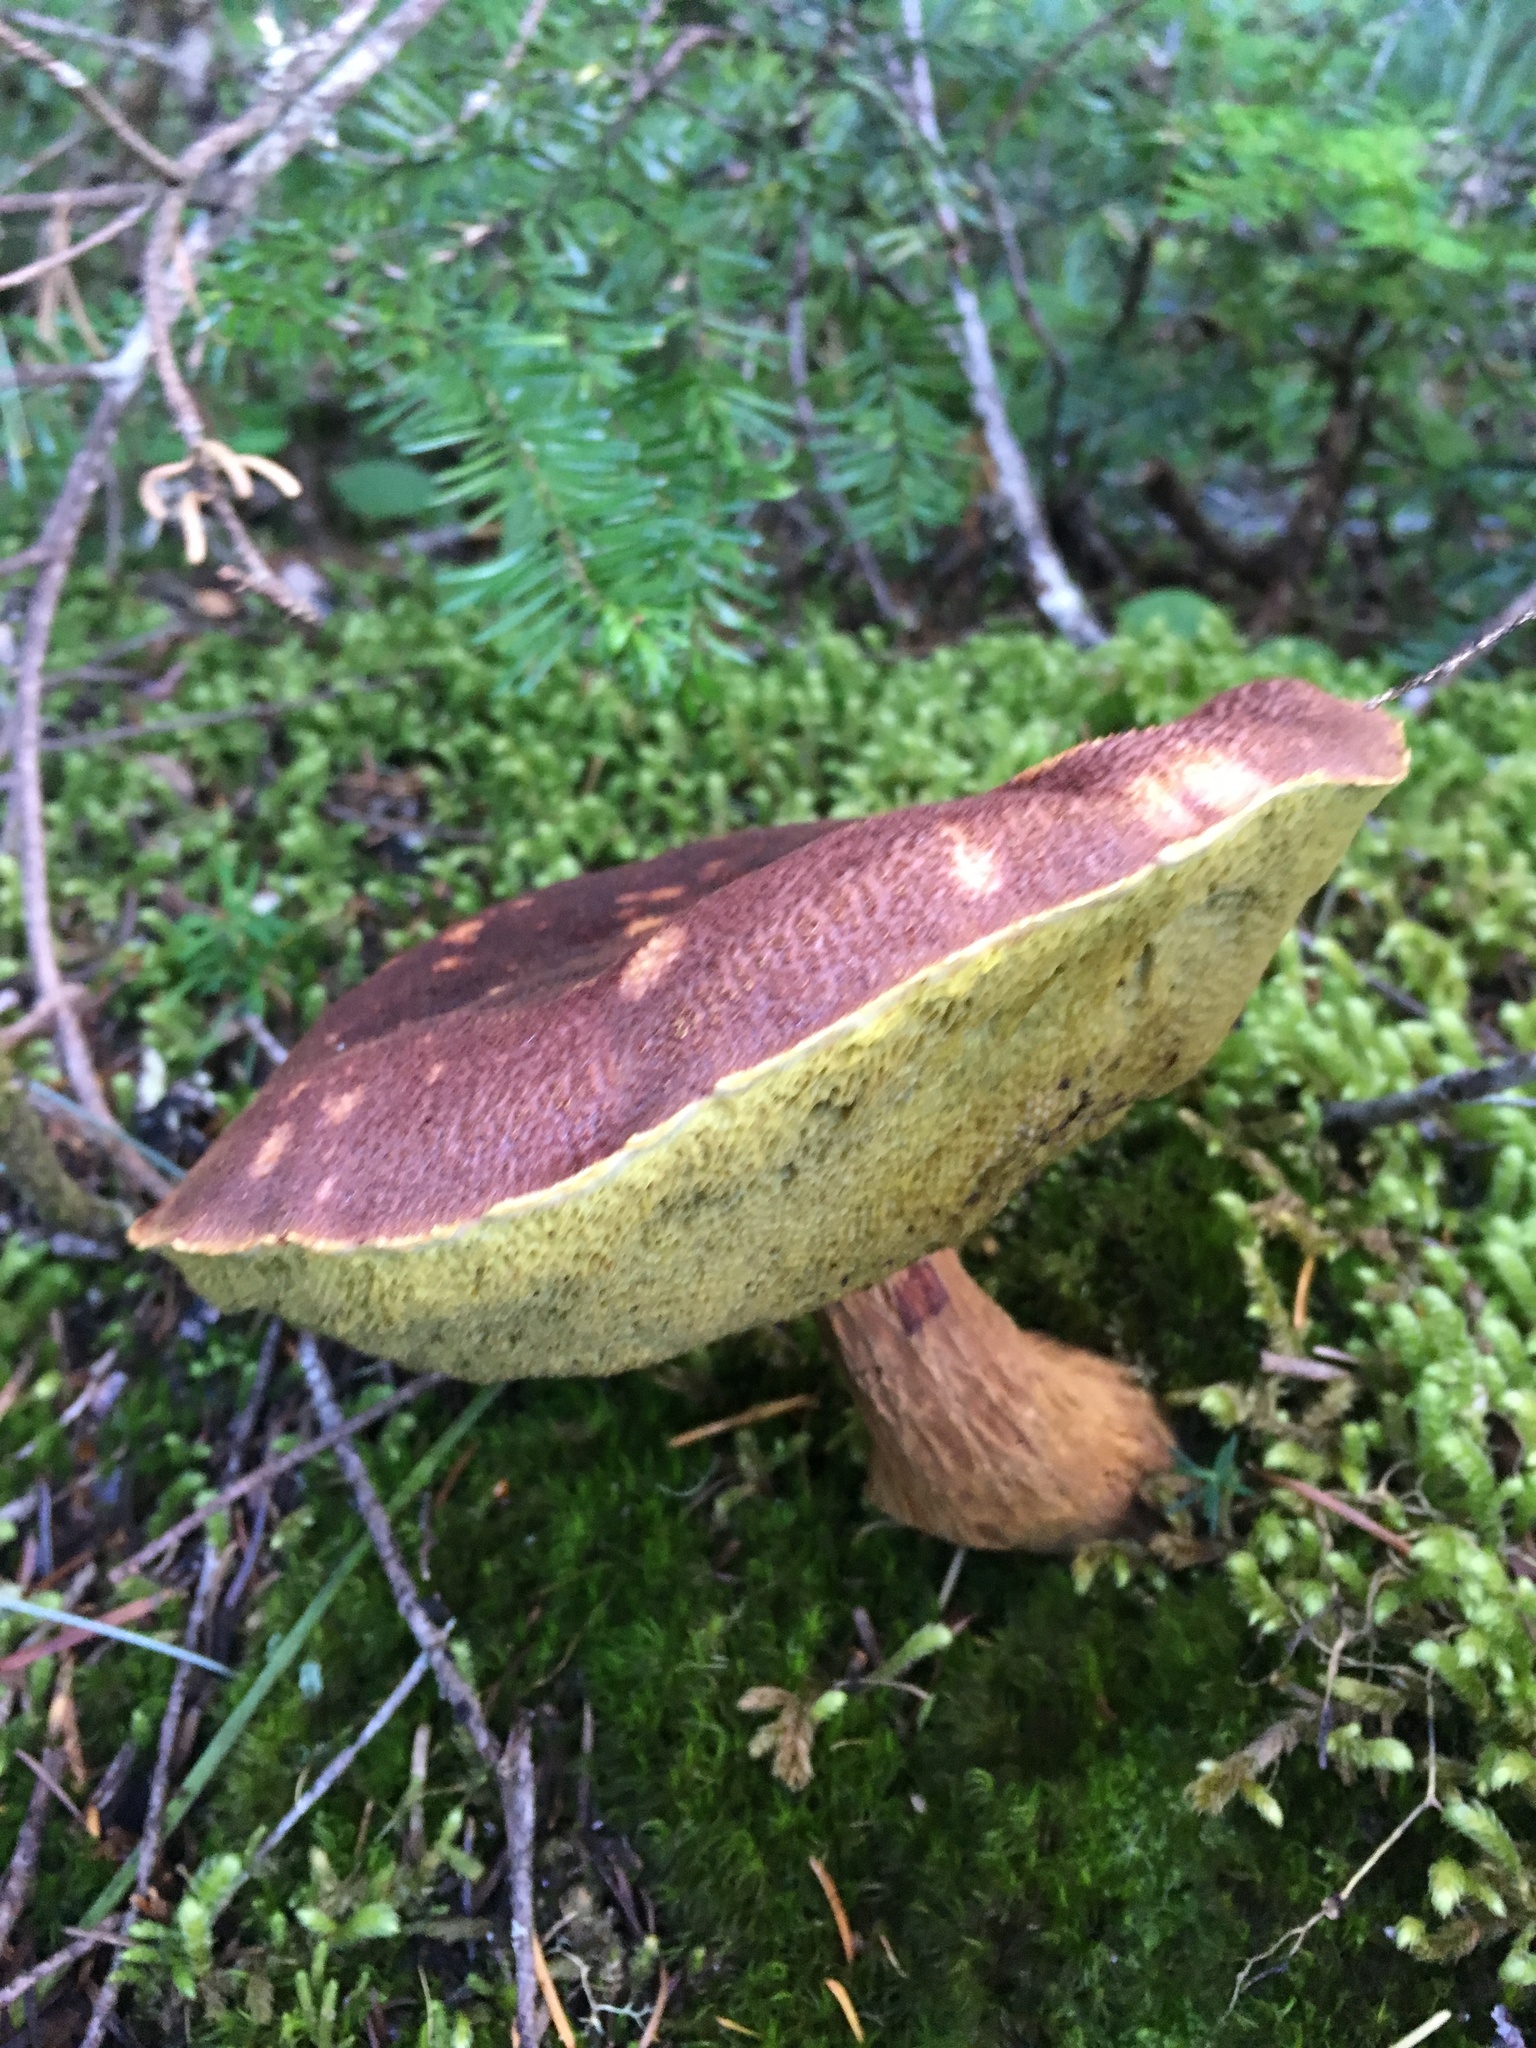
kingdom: Fungi
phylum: Basidiomycota
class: Agaricomycetes
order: Boletales
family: Boletaceae
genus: Aureoboletus
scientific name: Aureoboletus mirabilis
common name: Admirable bolete
